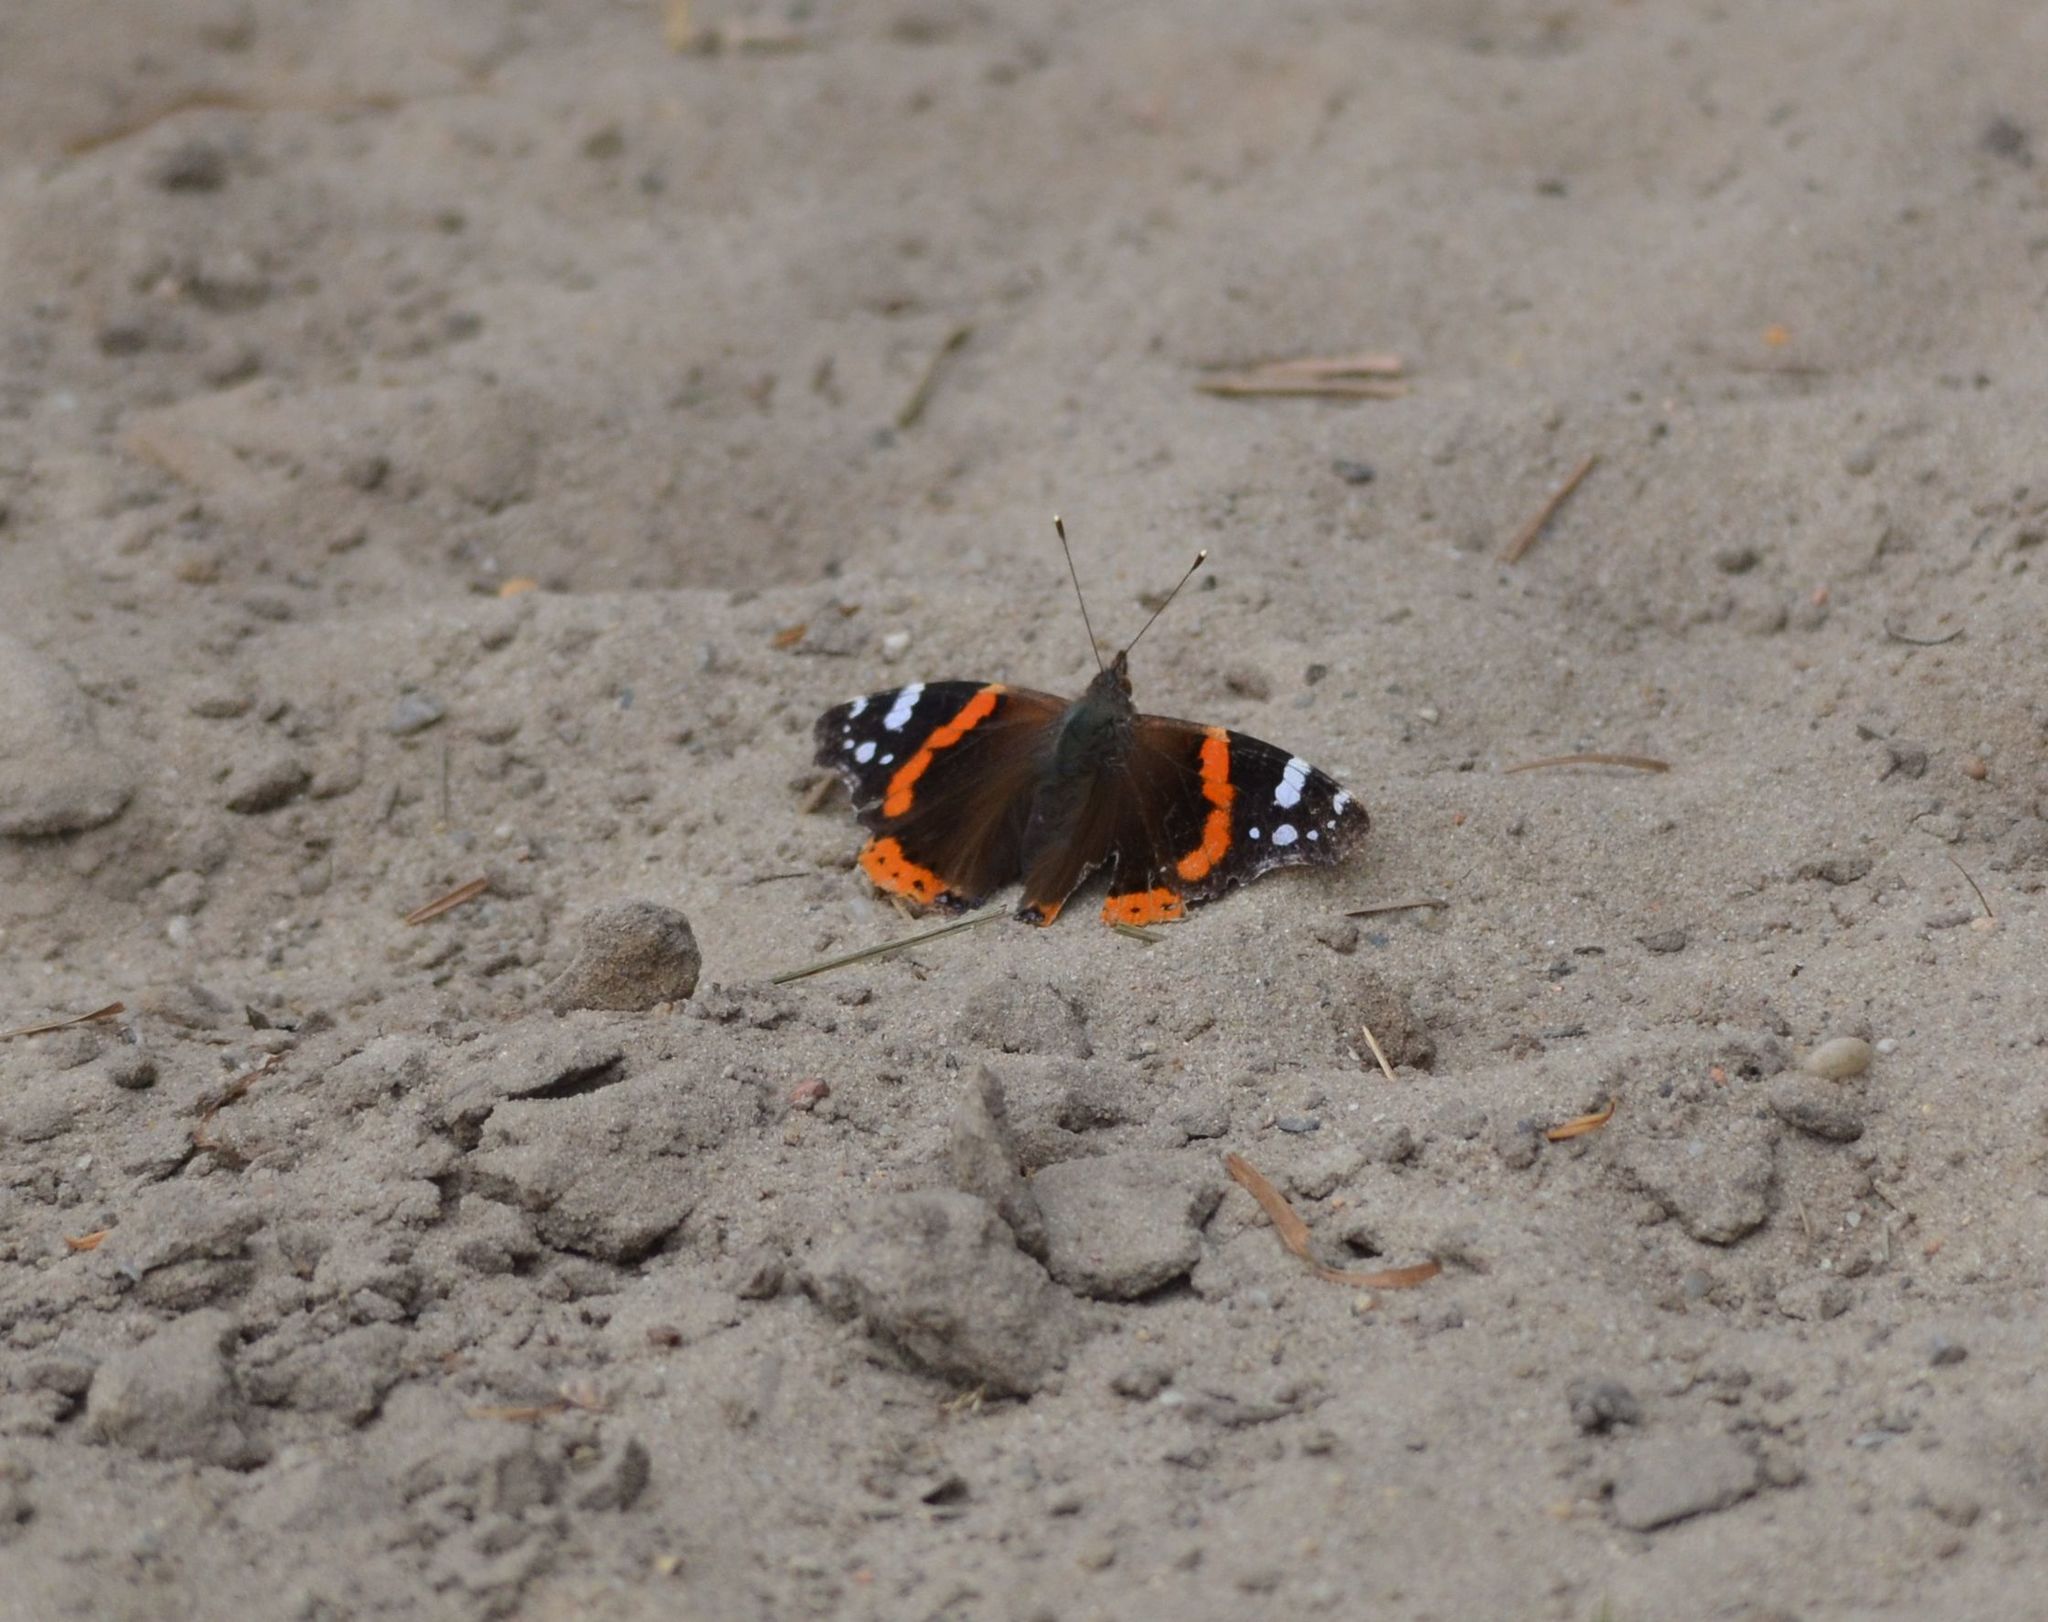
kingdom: Animalia
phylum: Arthropoda
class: Insecta
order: Lepidoptera
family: Nymphalidae
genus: Vanessa
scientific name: Vanessa atalanta
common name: Red admiral
